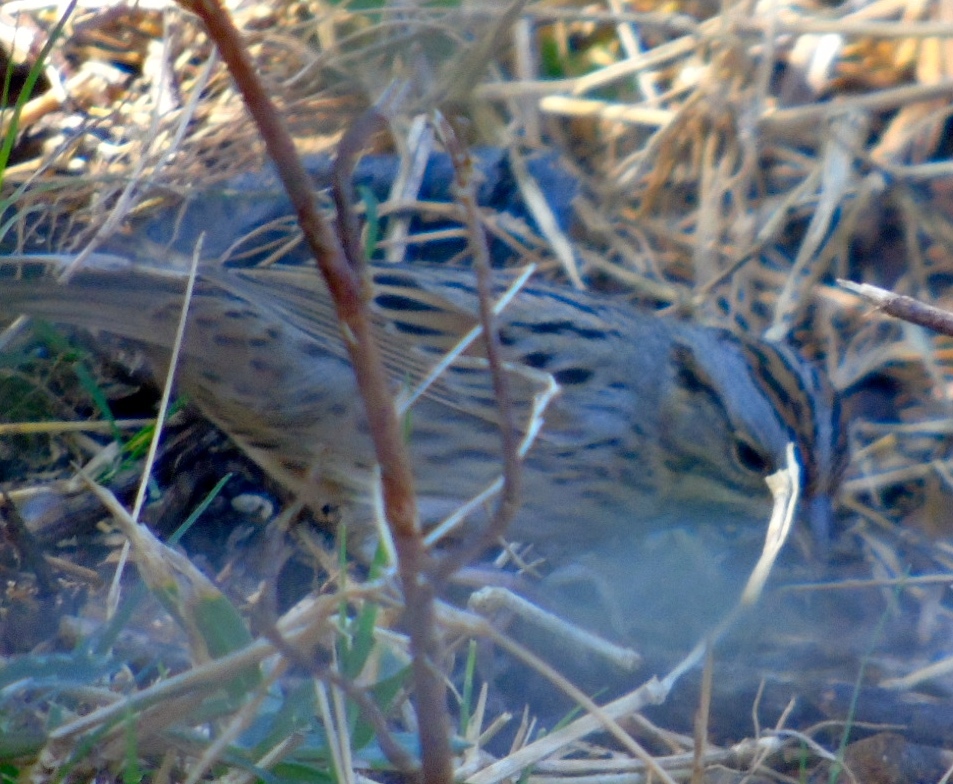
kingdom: Animalia
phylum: Chordata
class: Aves
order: Passeriformes
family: Passerellidae
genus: Melospiza
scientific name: Melospiza lincolnii
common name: Lincoln's sparrow
